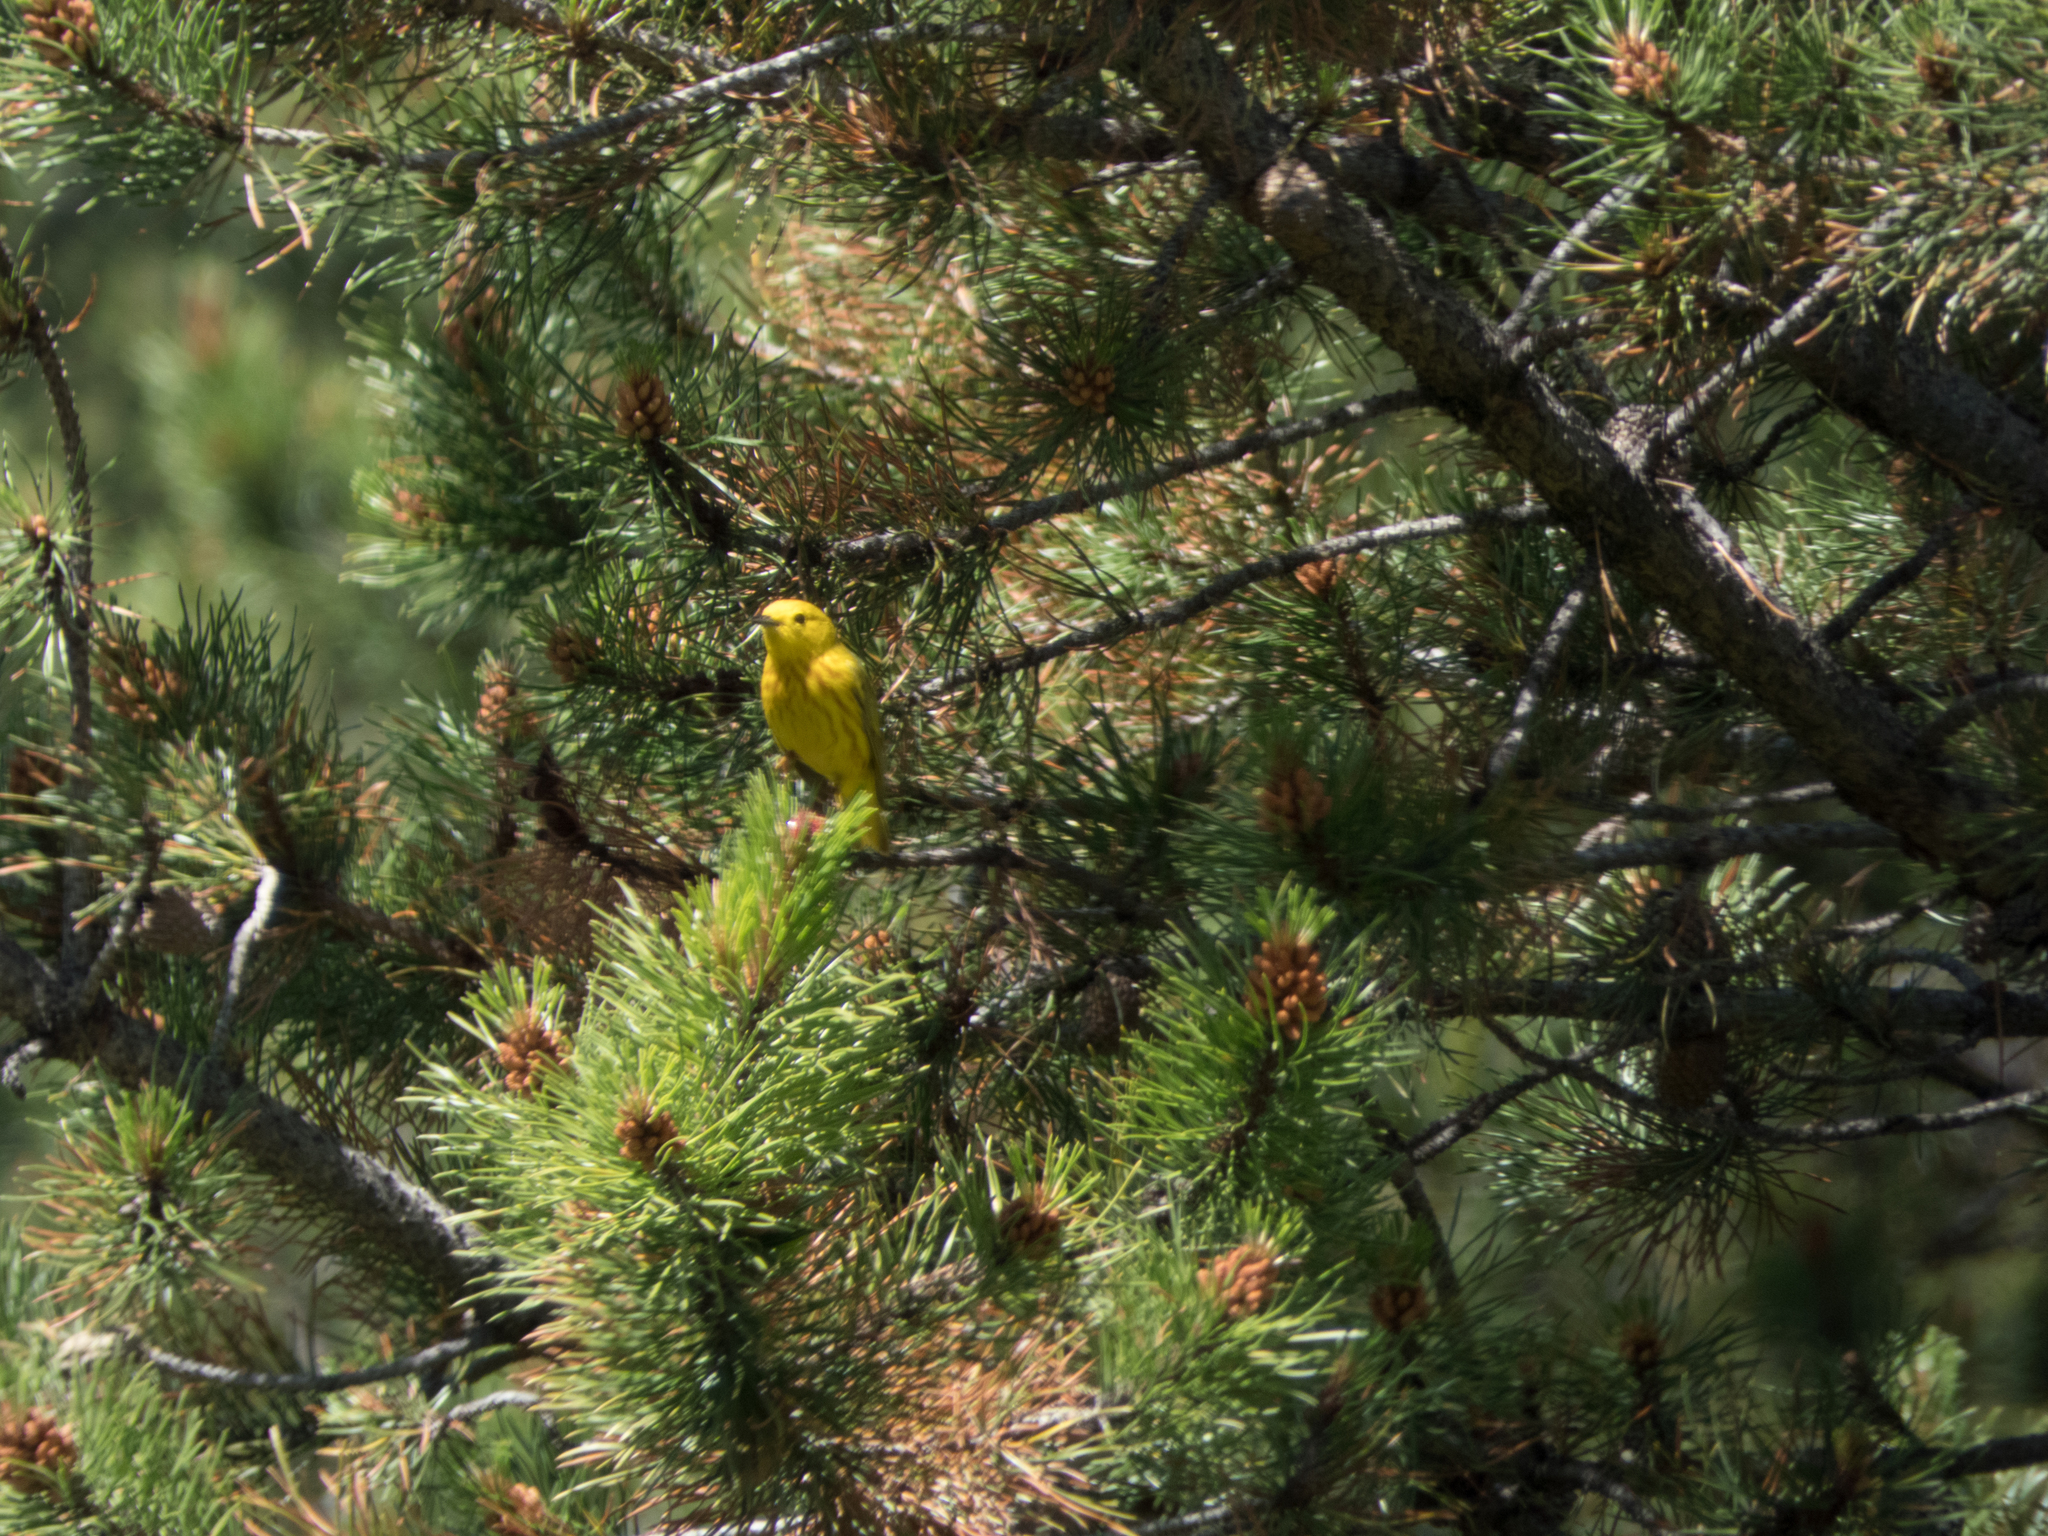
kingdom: Animalia
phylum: Chordata
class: Aves
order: Passeriformes
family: Parulidae
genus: Setophaga
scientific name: Setophaga petechia
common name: Yellow warbler
